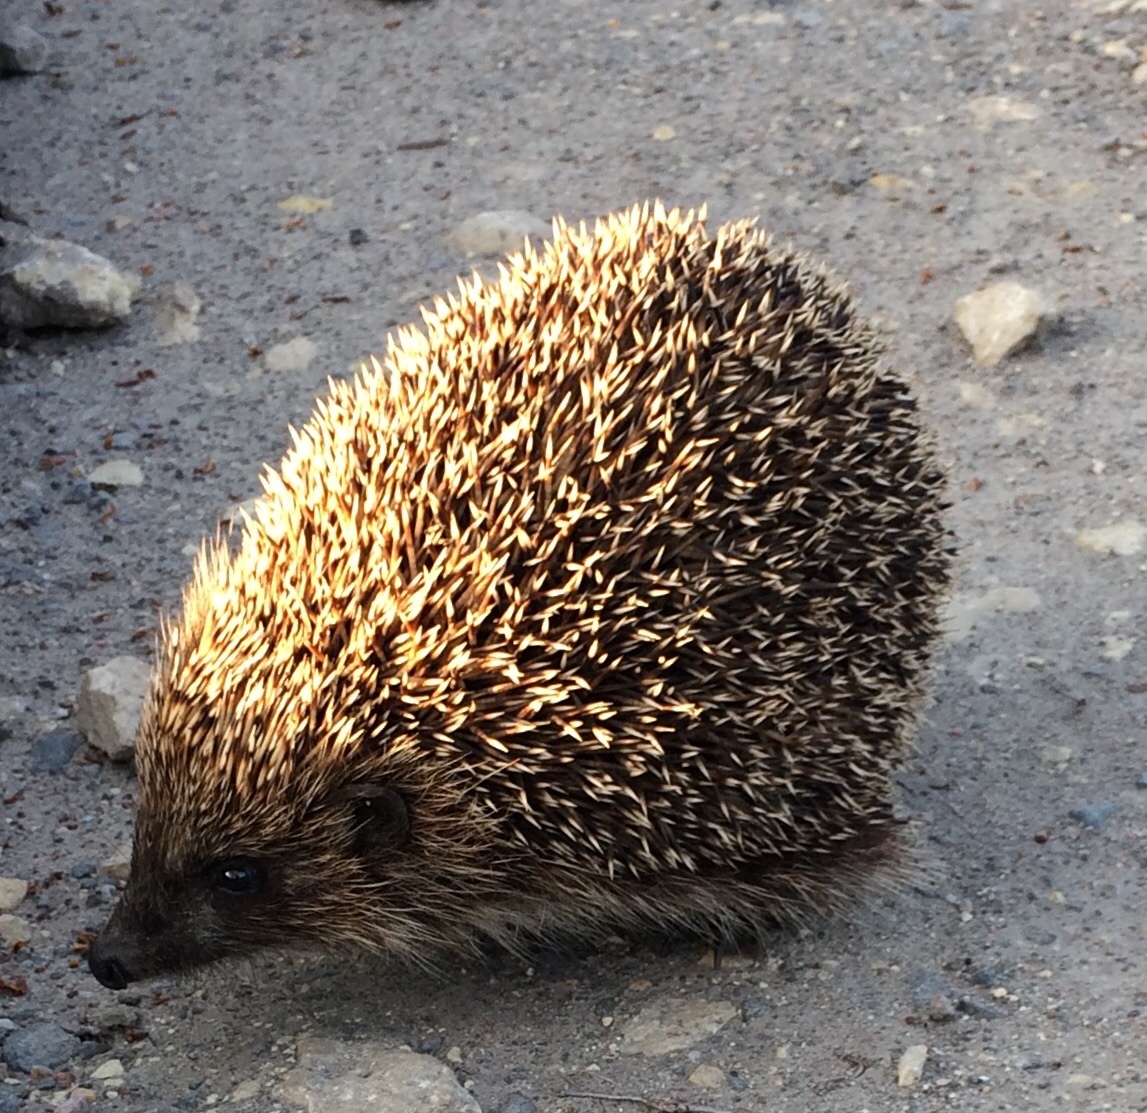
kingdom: Animalia
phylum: Chordata
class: Mammalia
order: Erinaceomorpha
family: Erinaceidae
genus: Erinaceus
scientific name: Erinaceus roumanicus
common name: Northern white-breasted hedgehog
